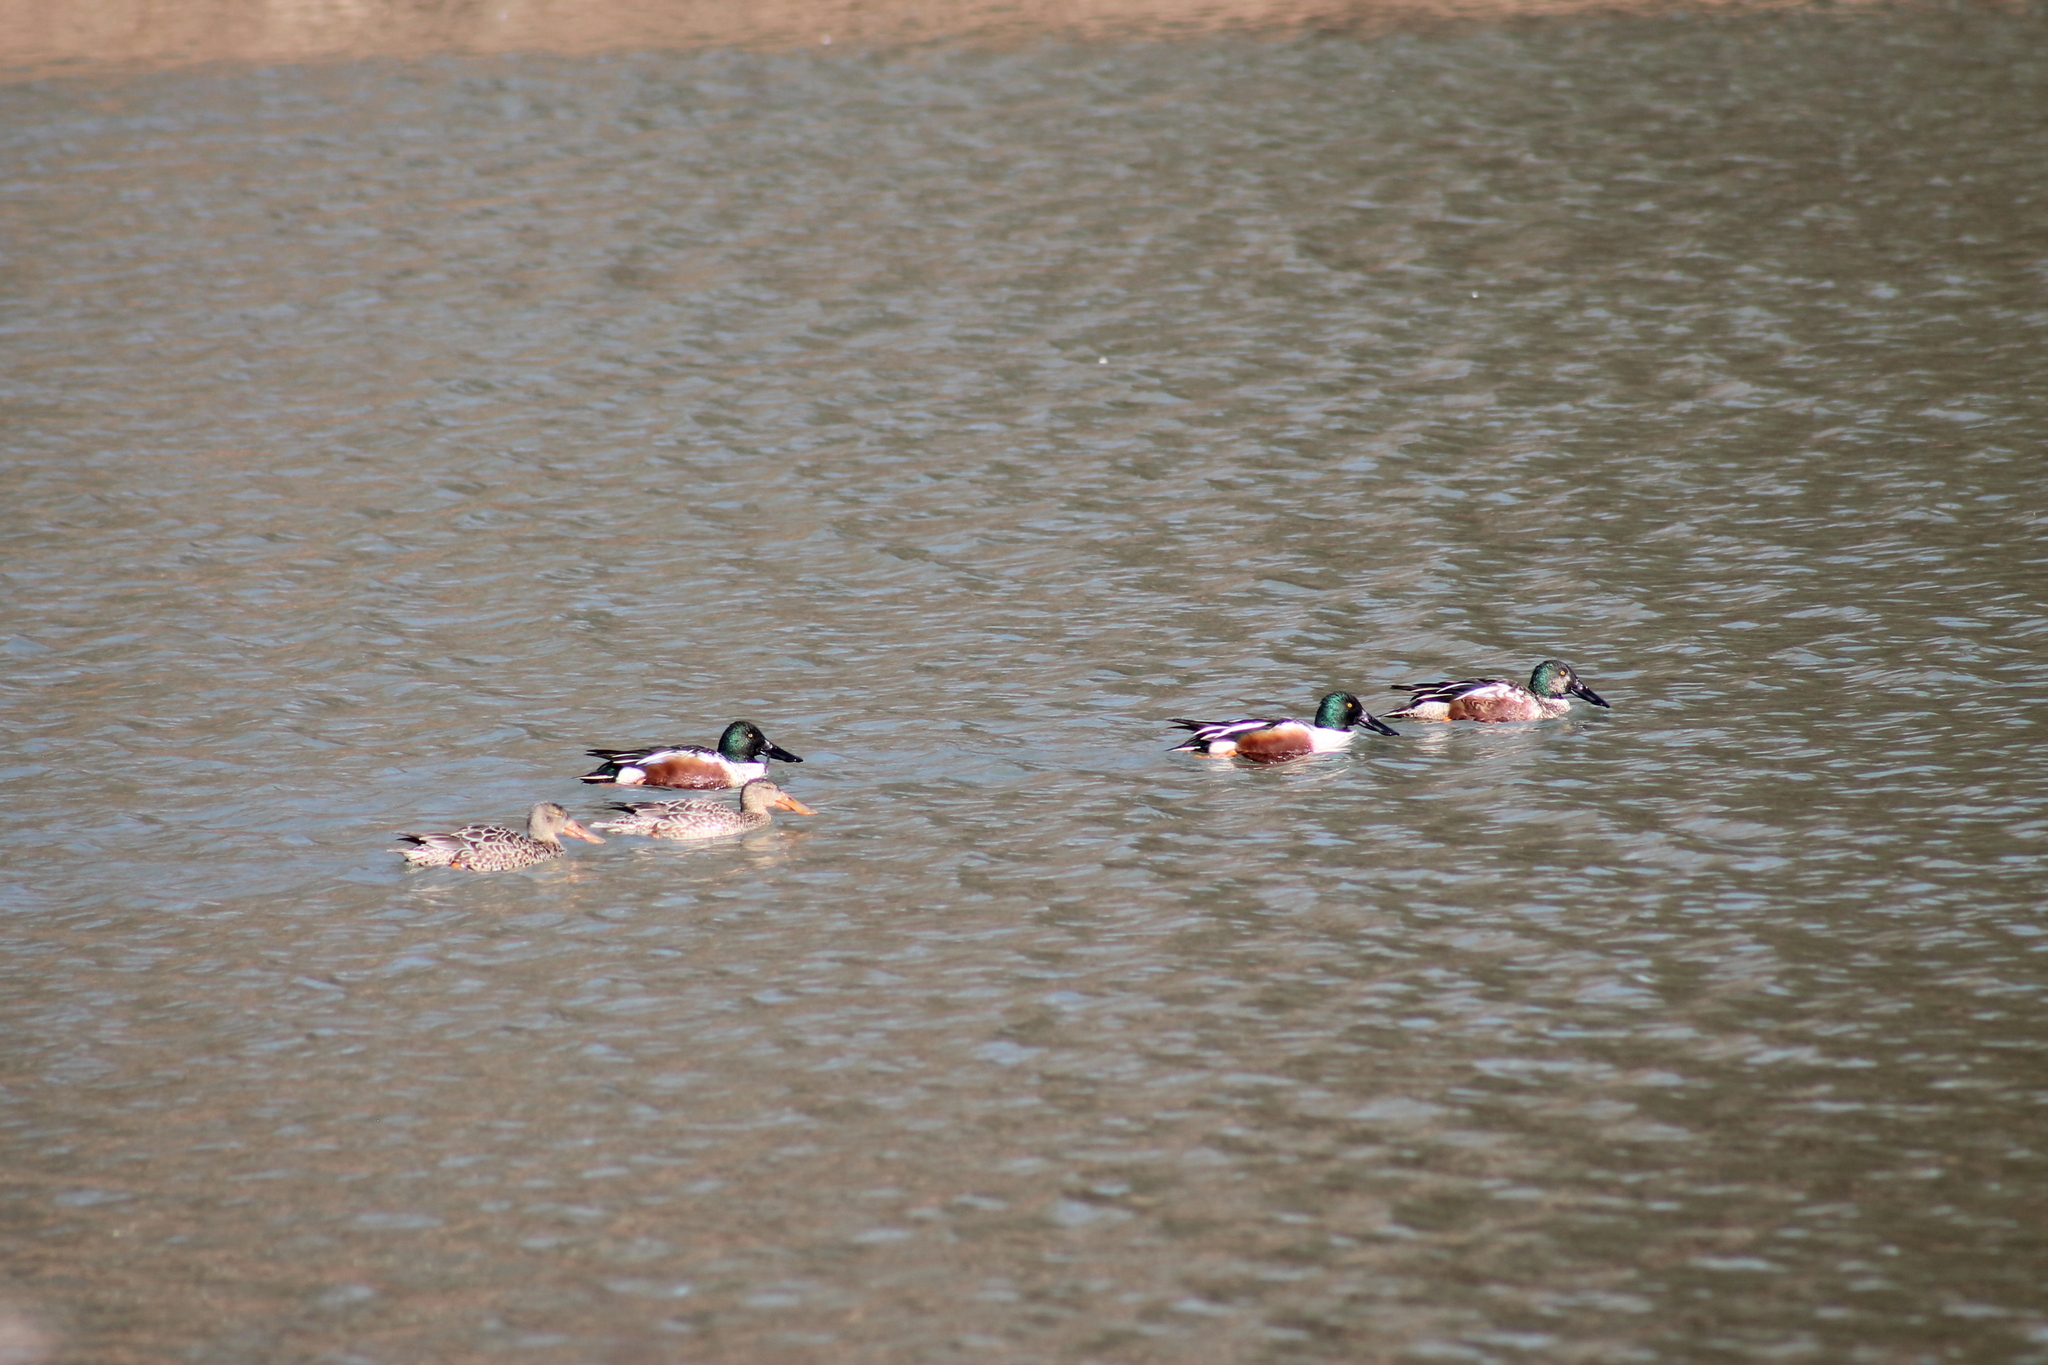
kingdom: Animalia
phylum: Chordata
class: Aves
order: Anseriformes
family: Anatidae
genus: Spatula
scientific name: Spatula clypeata
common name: Northern shoveler
